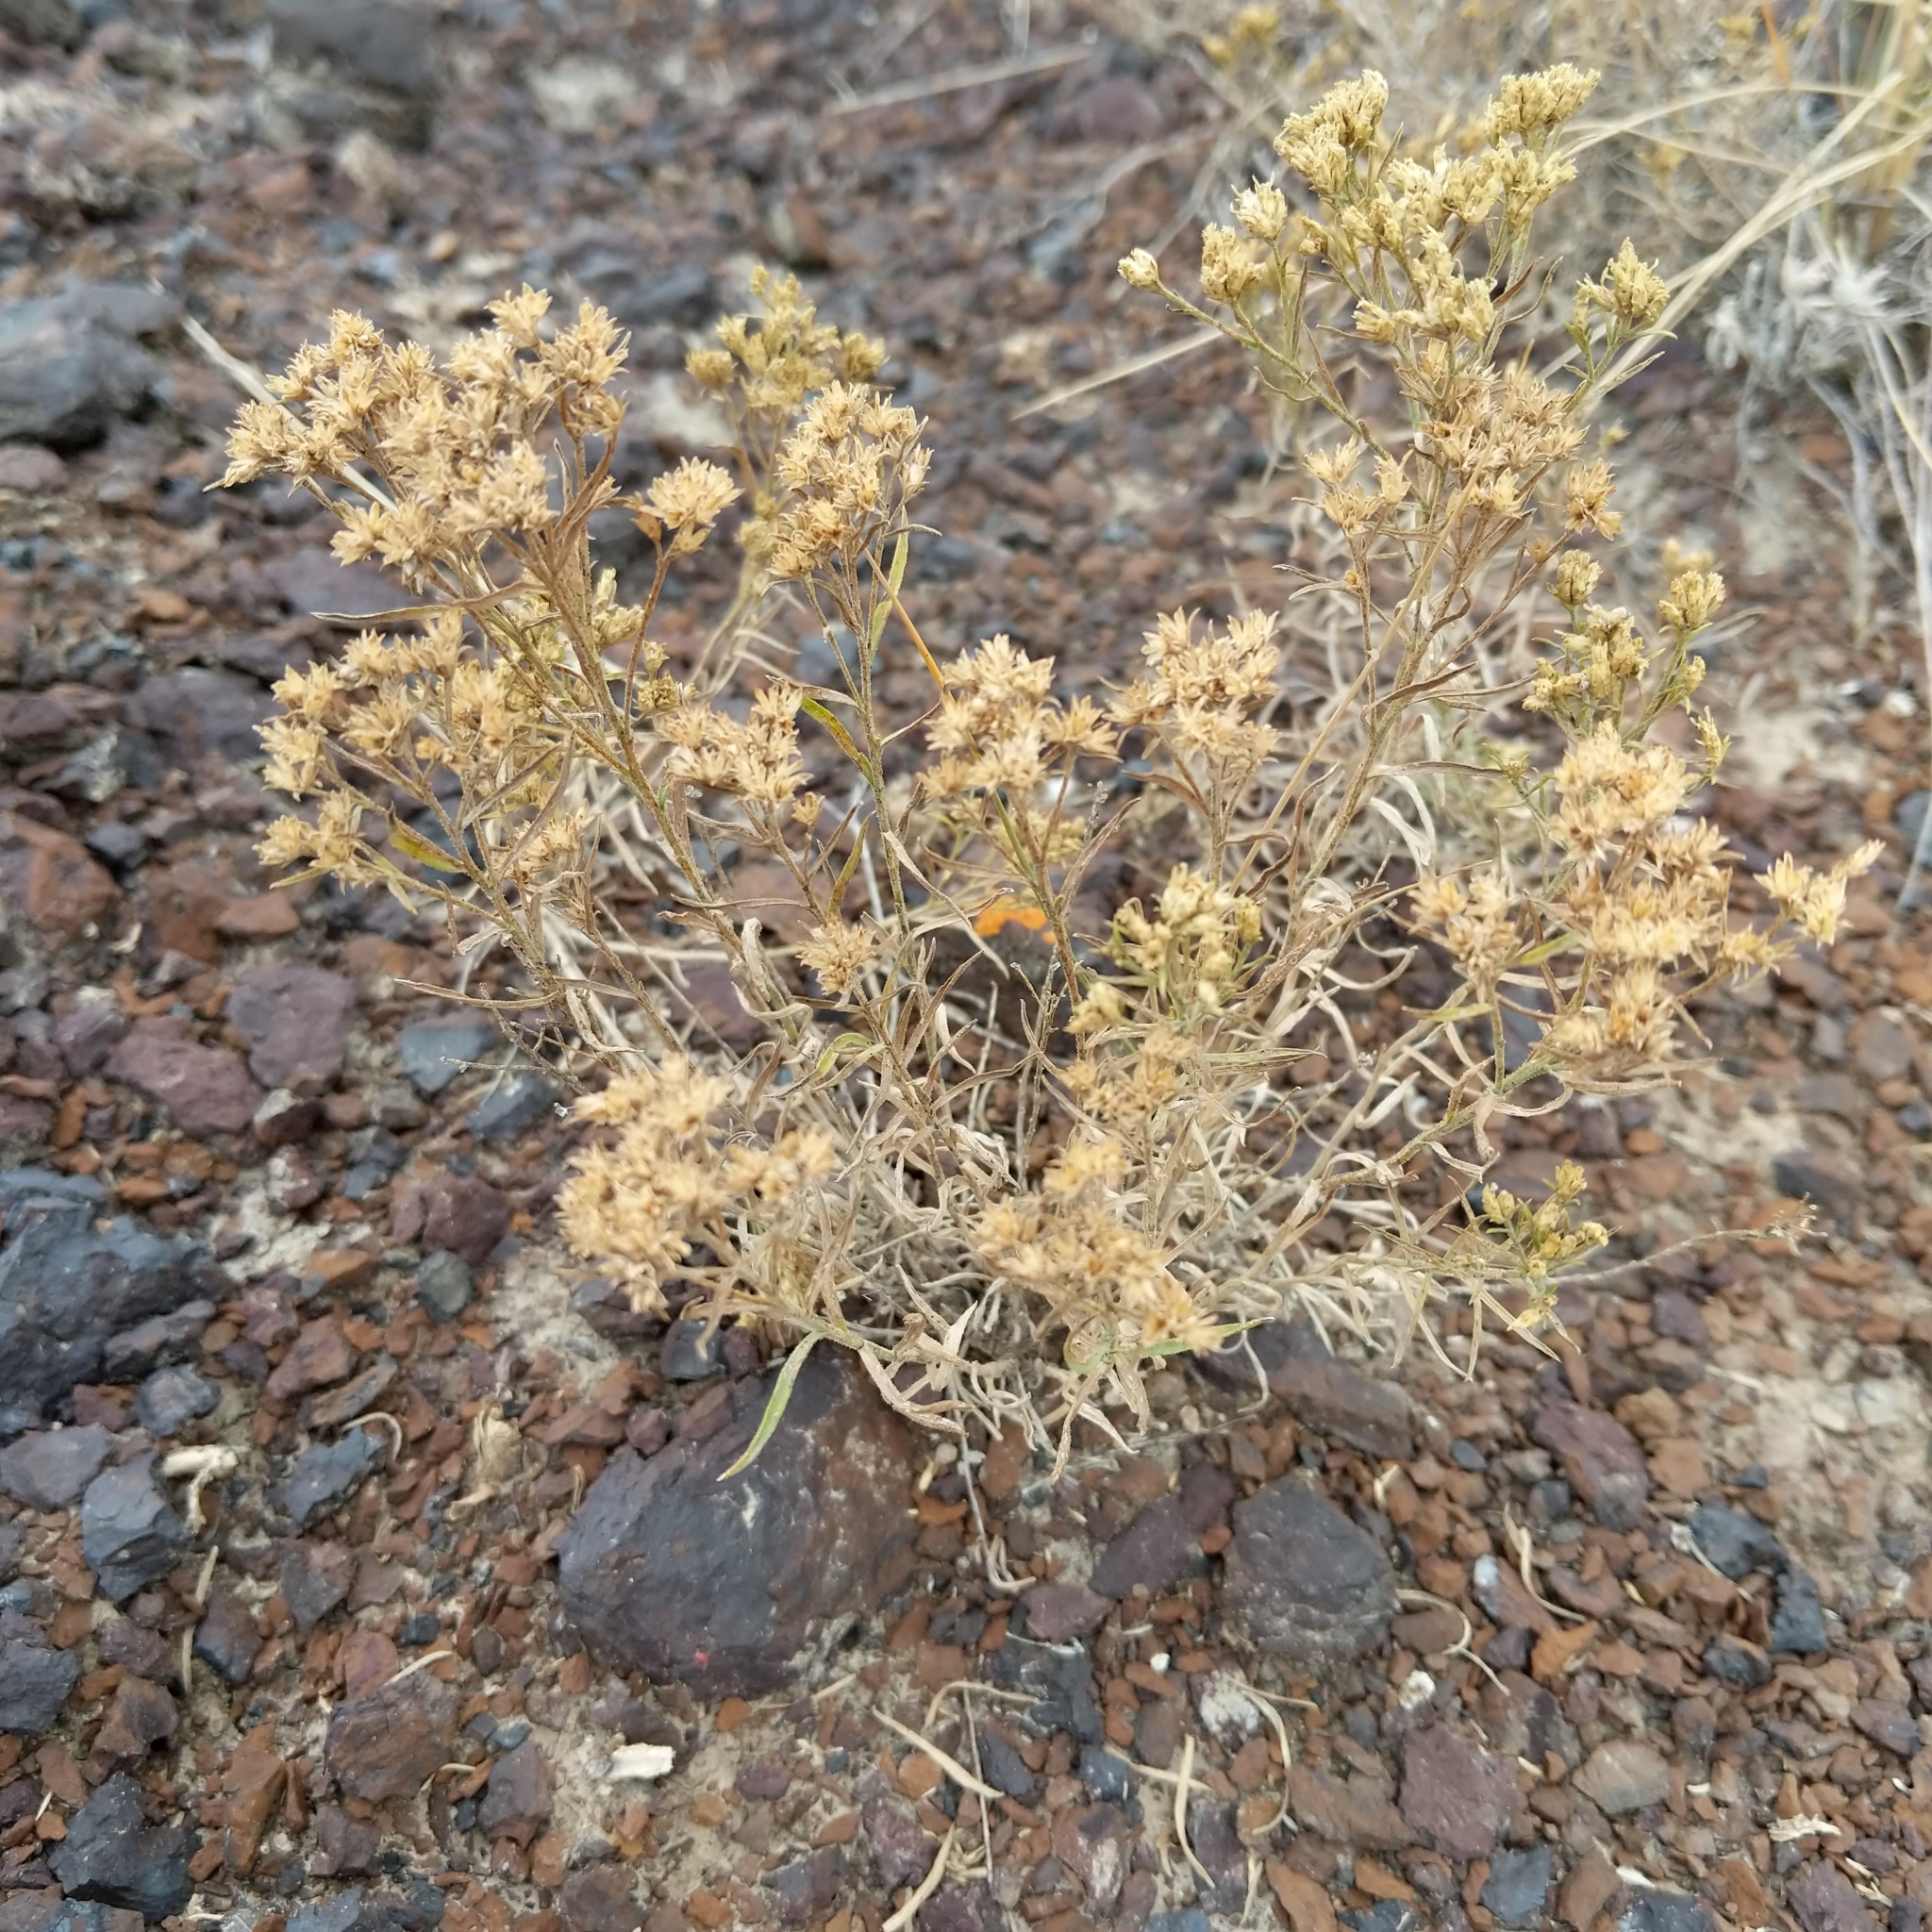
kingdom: Plantae
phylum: Tracheophyta
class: Magnoliopsida
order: Asterales
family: Asteraceae
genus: Gutierrezia
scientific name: Gutierrezia sarothrae
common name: Broom snakeweed
